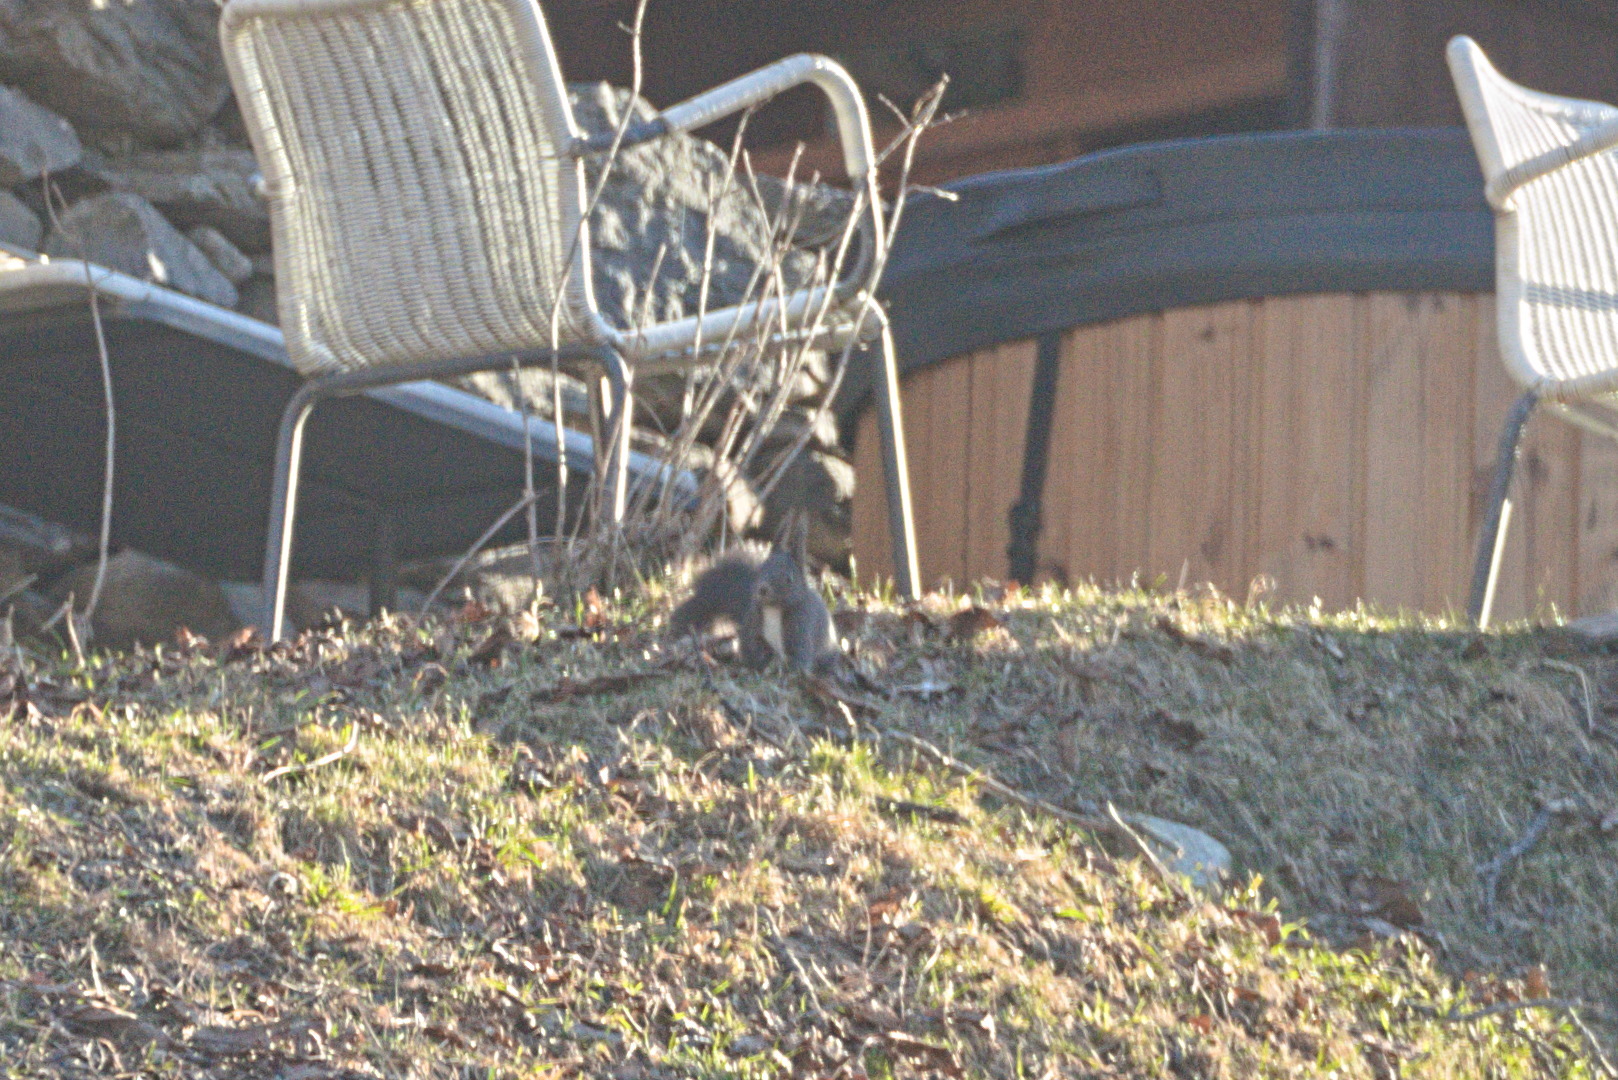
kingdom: Animalia
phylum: Chordata
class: Mammalia
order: Rodentia
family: Sciuridae
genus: Sciurus
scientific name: Sciurus vulgaris
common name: Eurasian red squirrel
